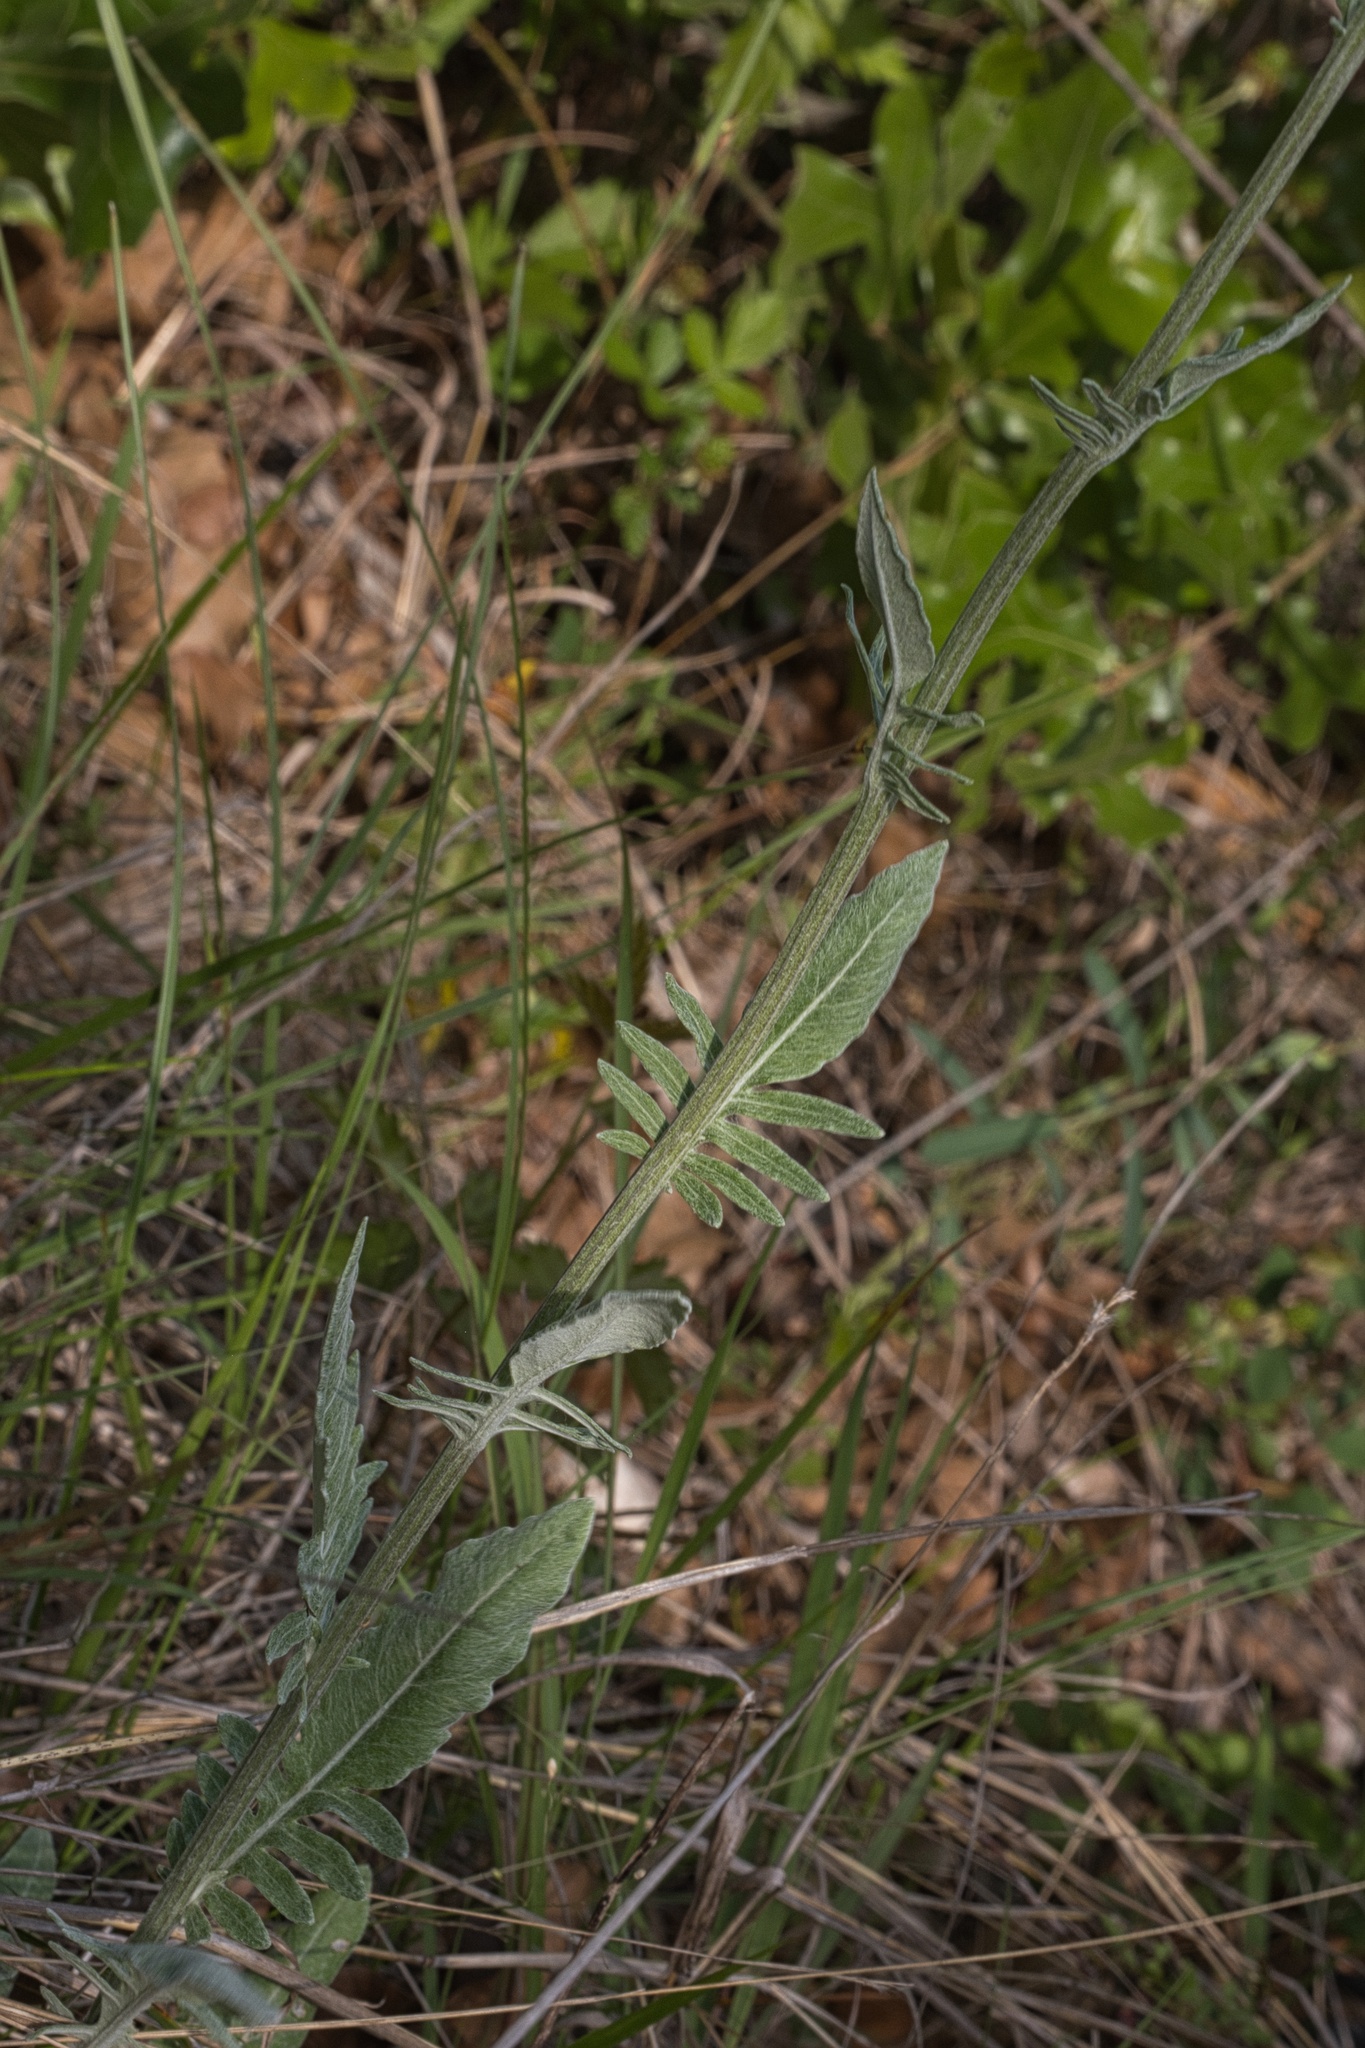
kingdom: Plantae
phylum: Tracheophyta
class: Magnoliopsida
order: Asterales
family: Asteraceae
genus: Hymenopappus
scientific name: Hymenopappus artemisiifolius
